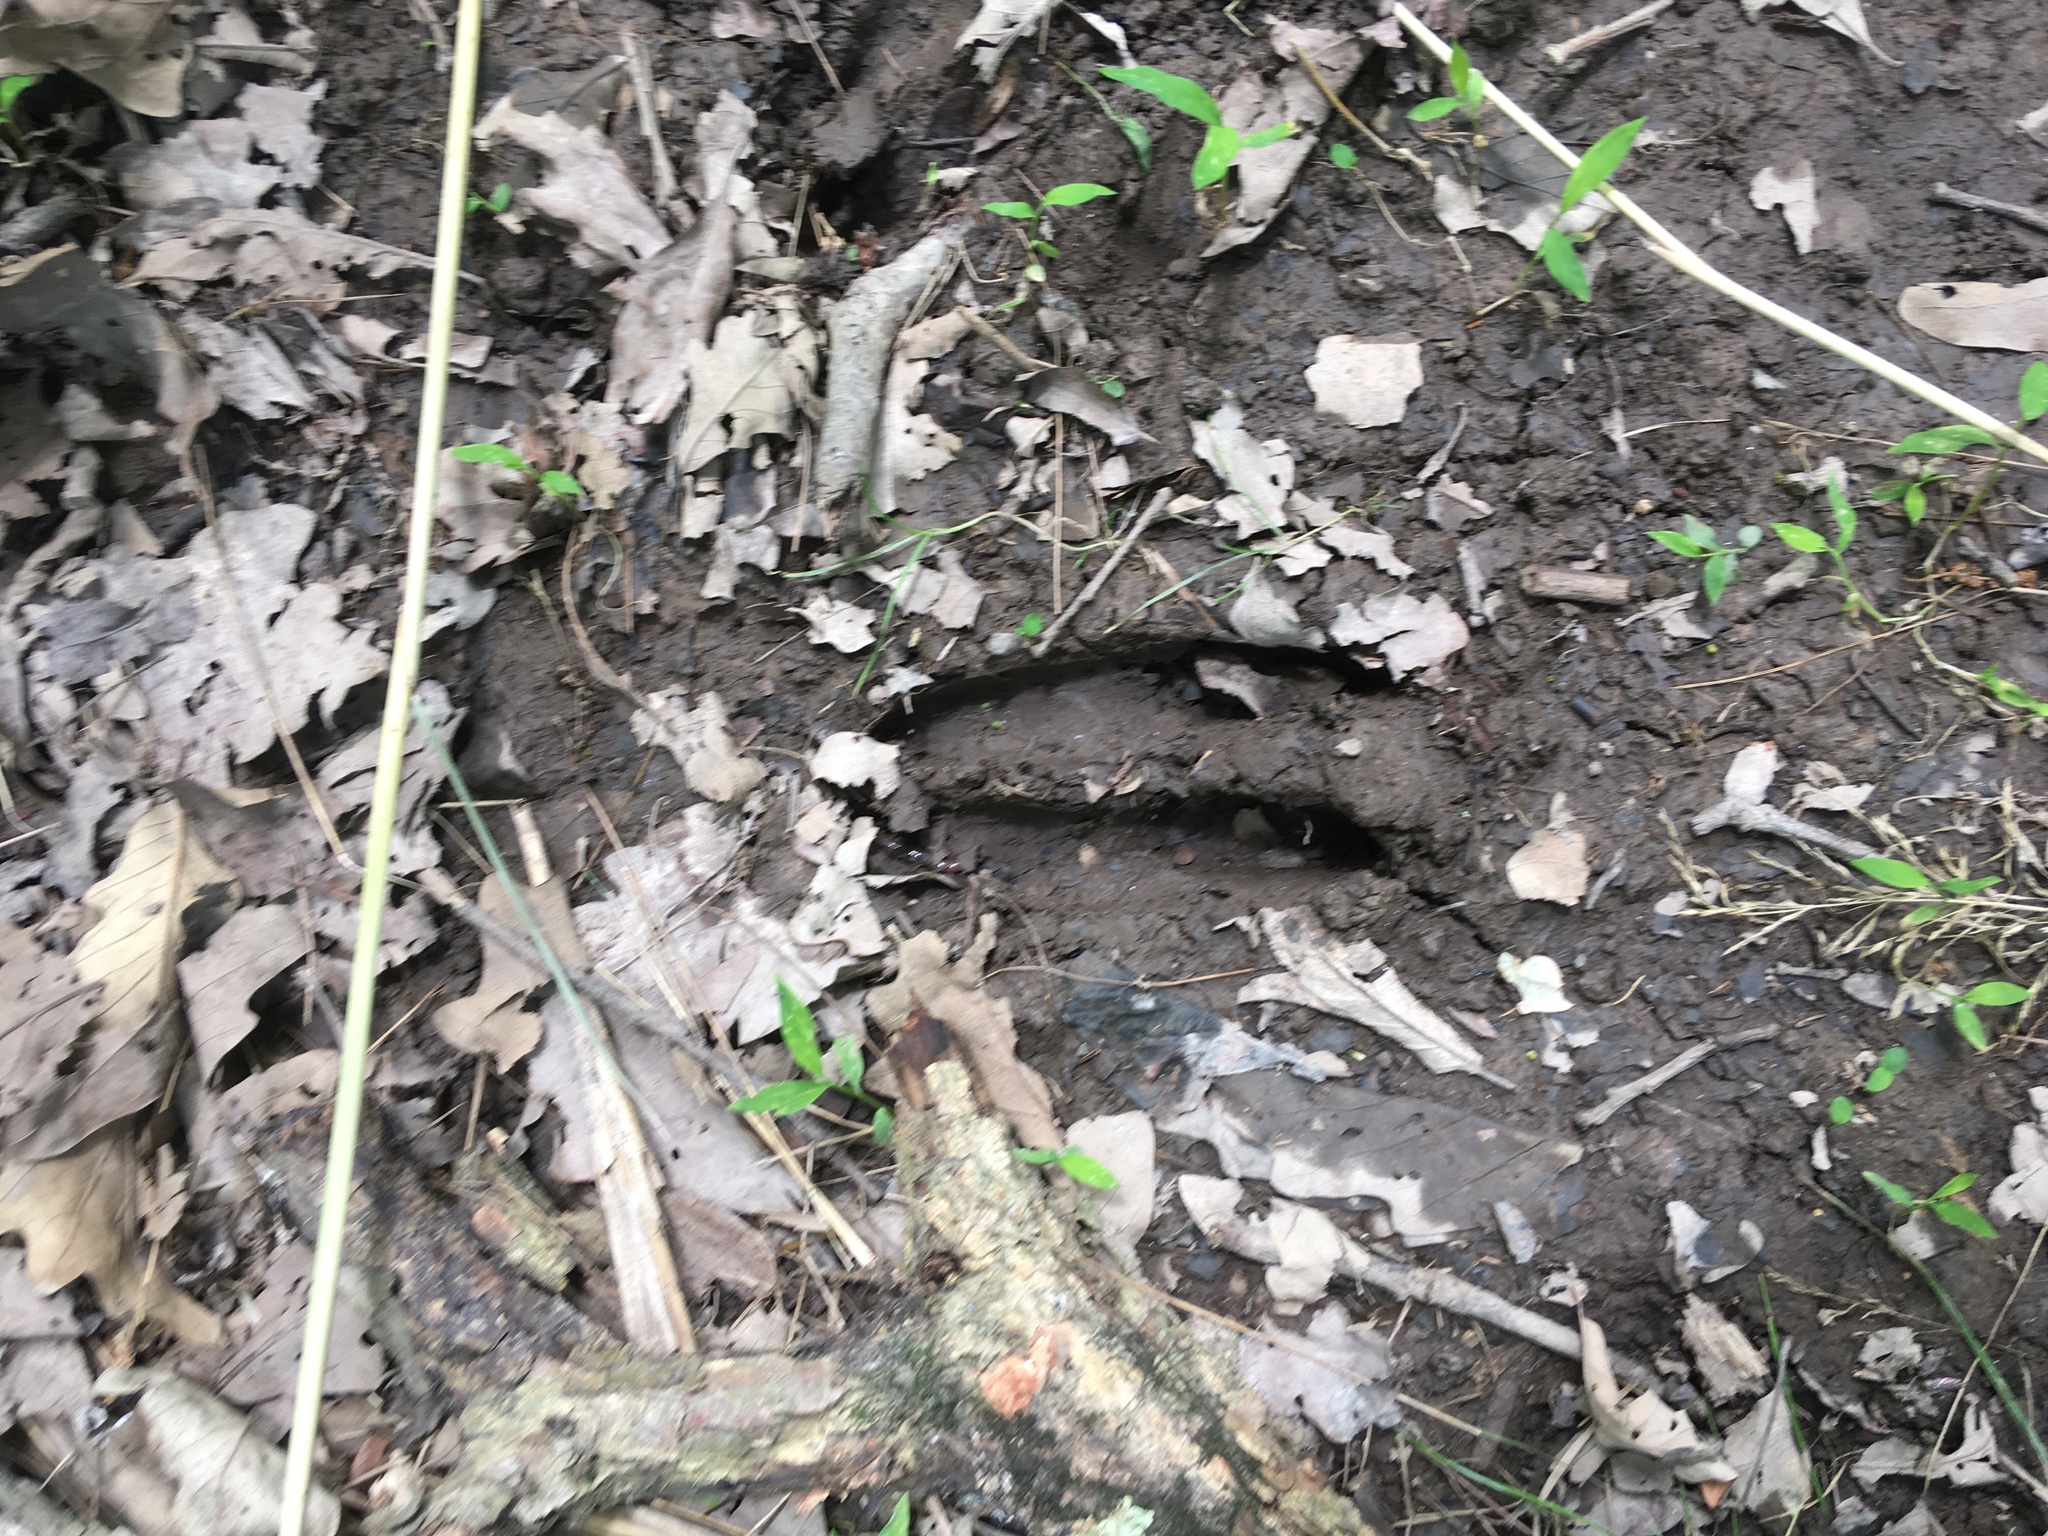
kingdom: Animalia
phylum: Chordata
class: Mammalia
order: Artiodactyla
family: Cervidae
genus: Odocoileus
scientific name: Odocoileus virginianus
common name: White-tailed deer
